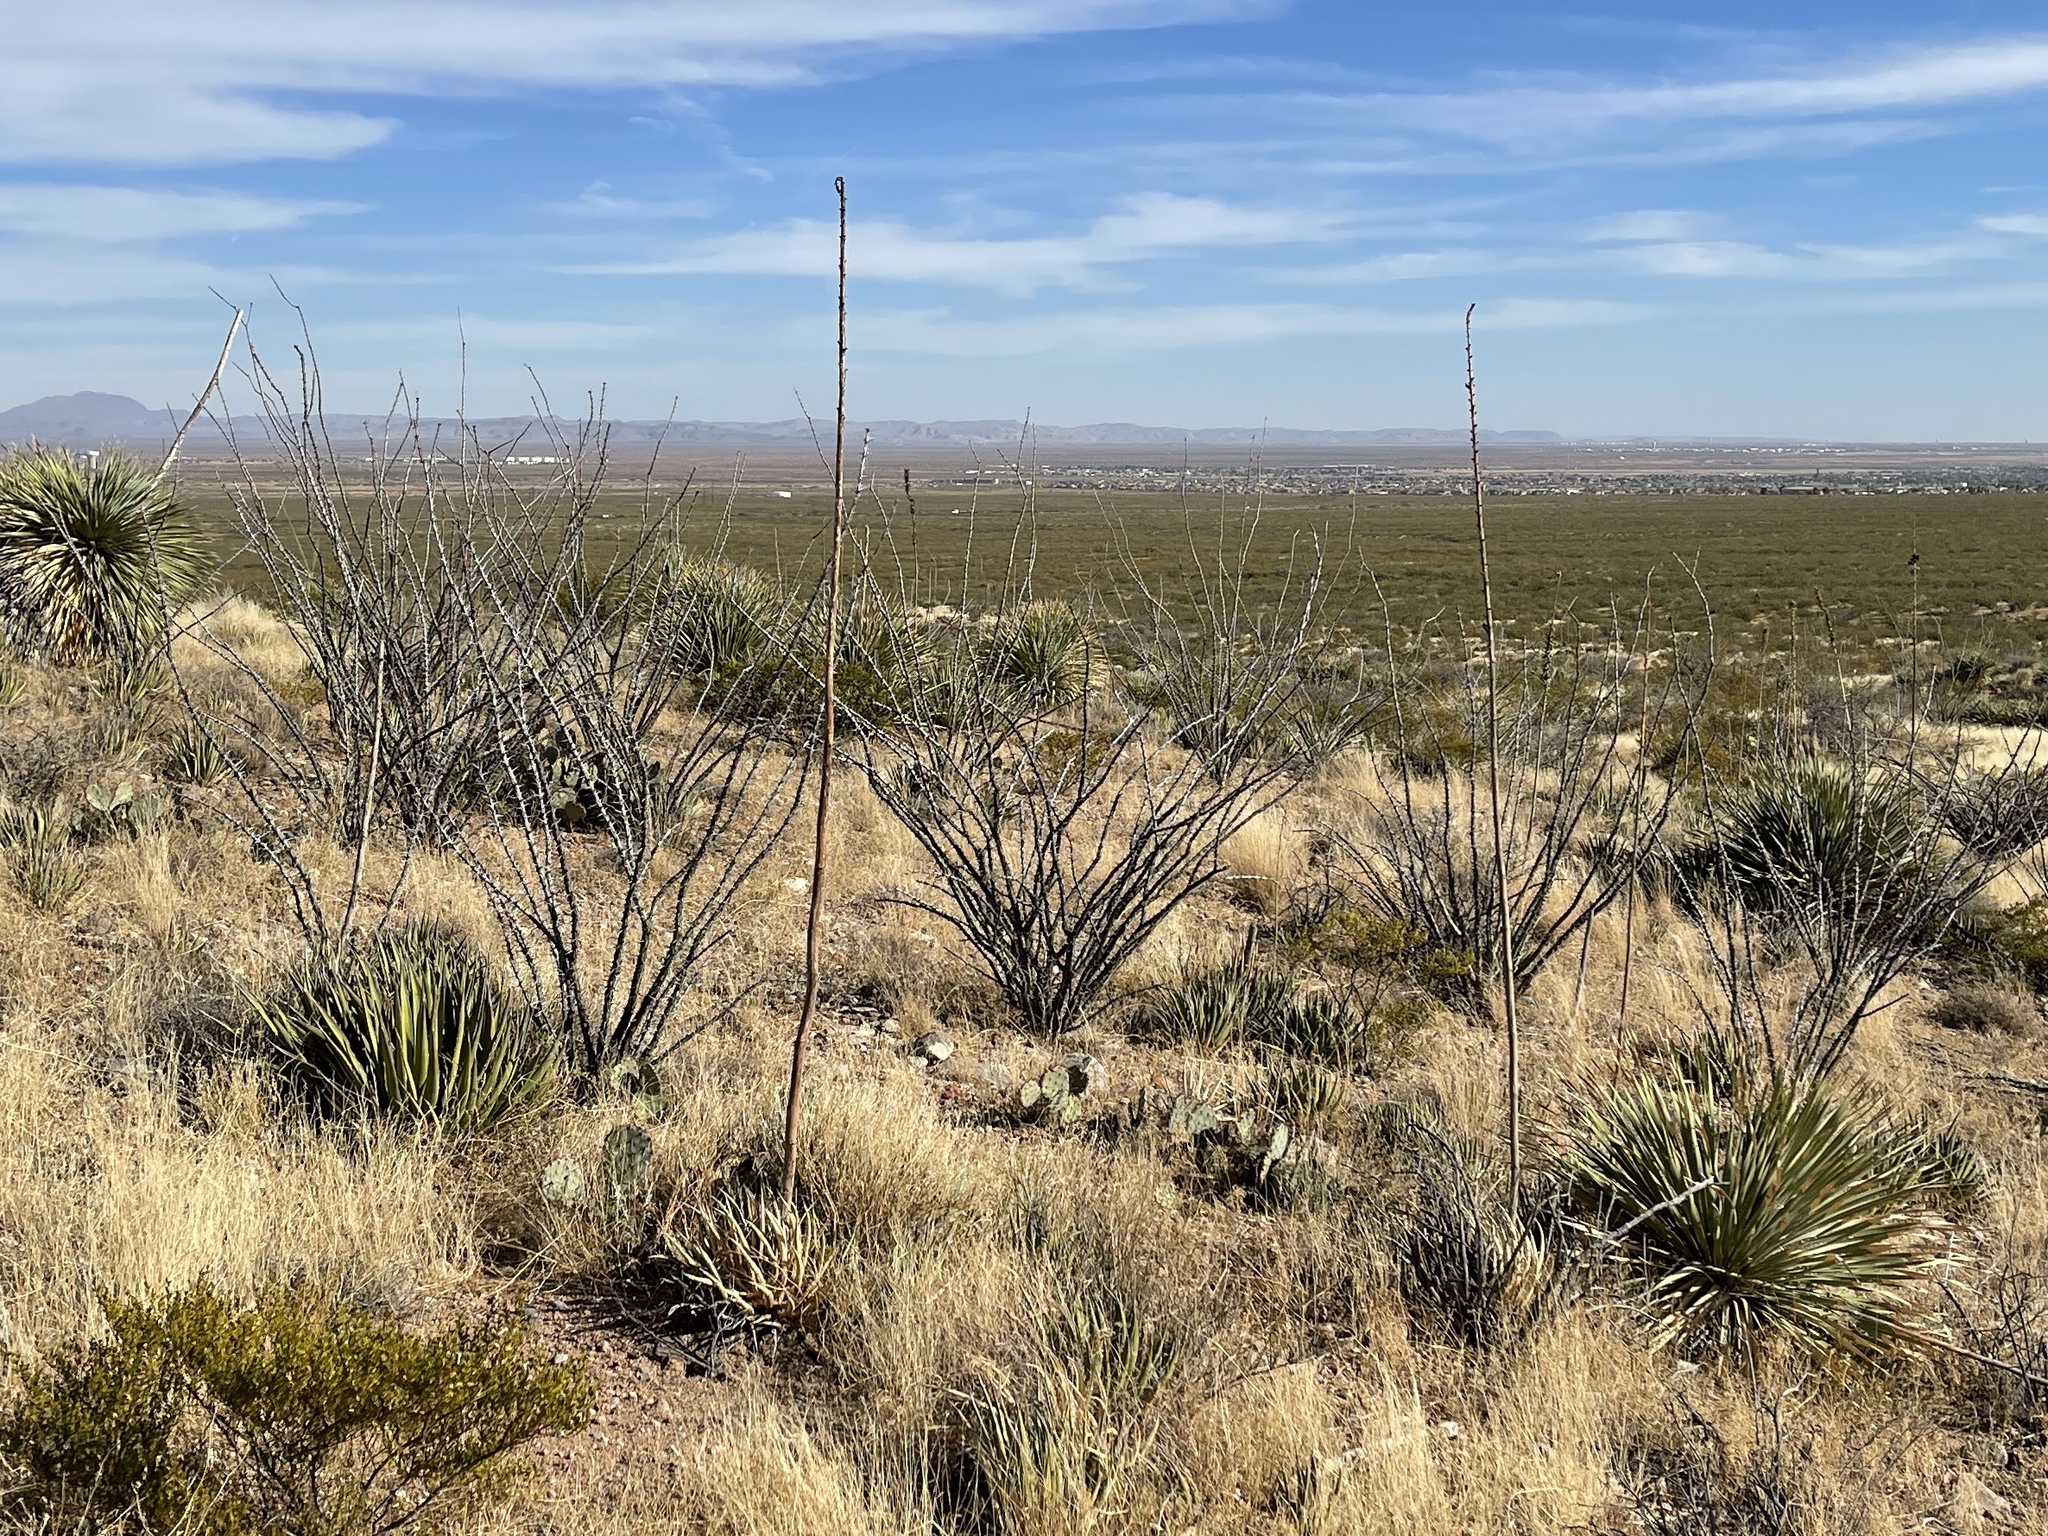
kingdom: Plantae
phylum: Tracheophyta
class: Magnoliopsida
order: Ericales
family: Fouquieriaceae
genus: Fouquieria
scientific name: Fouquieria splendens
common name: Vine-cactus
